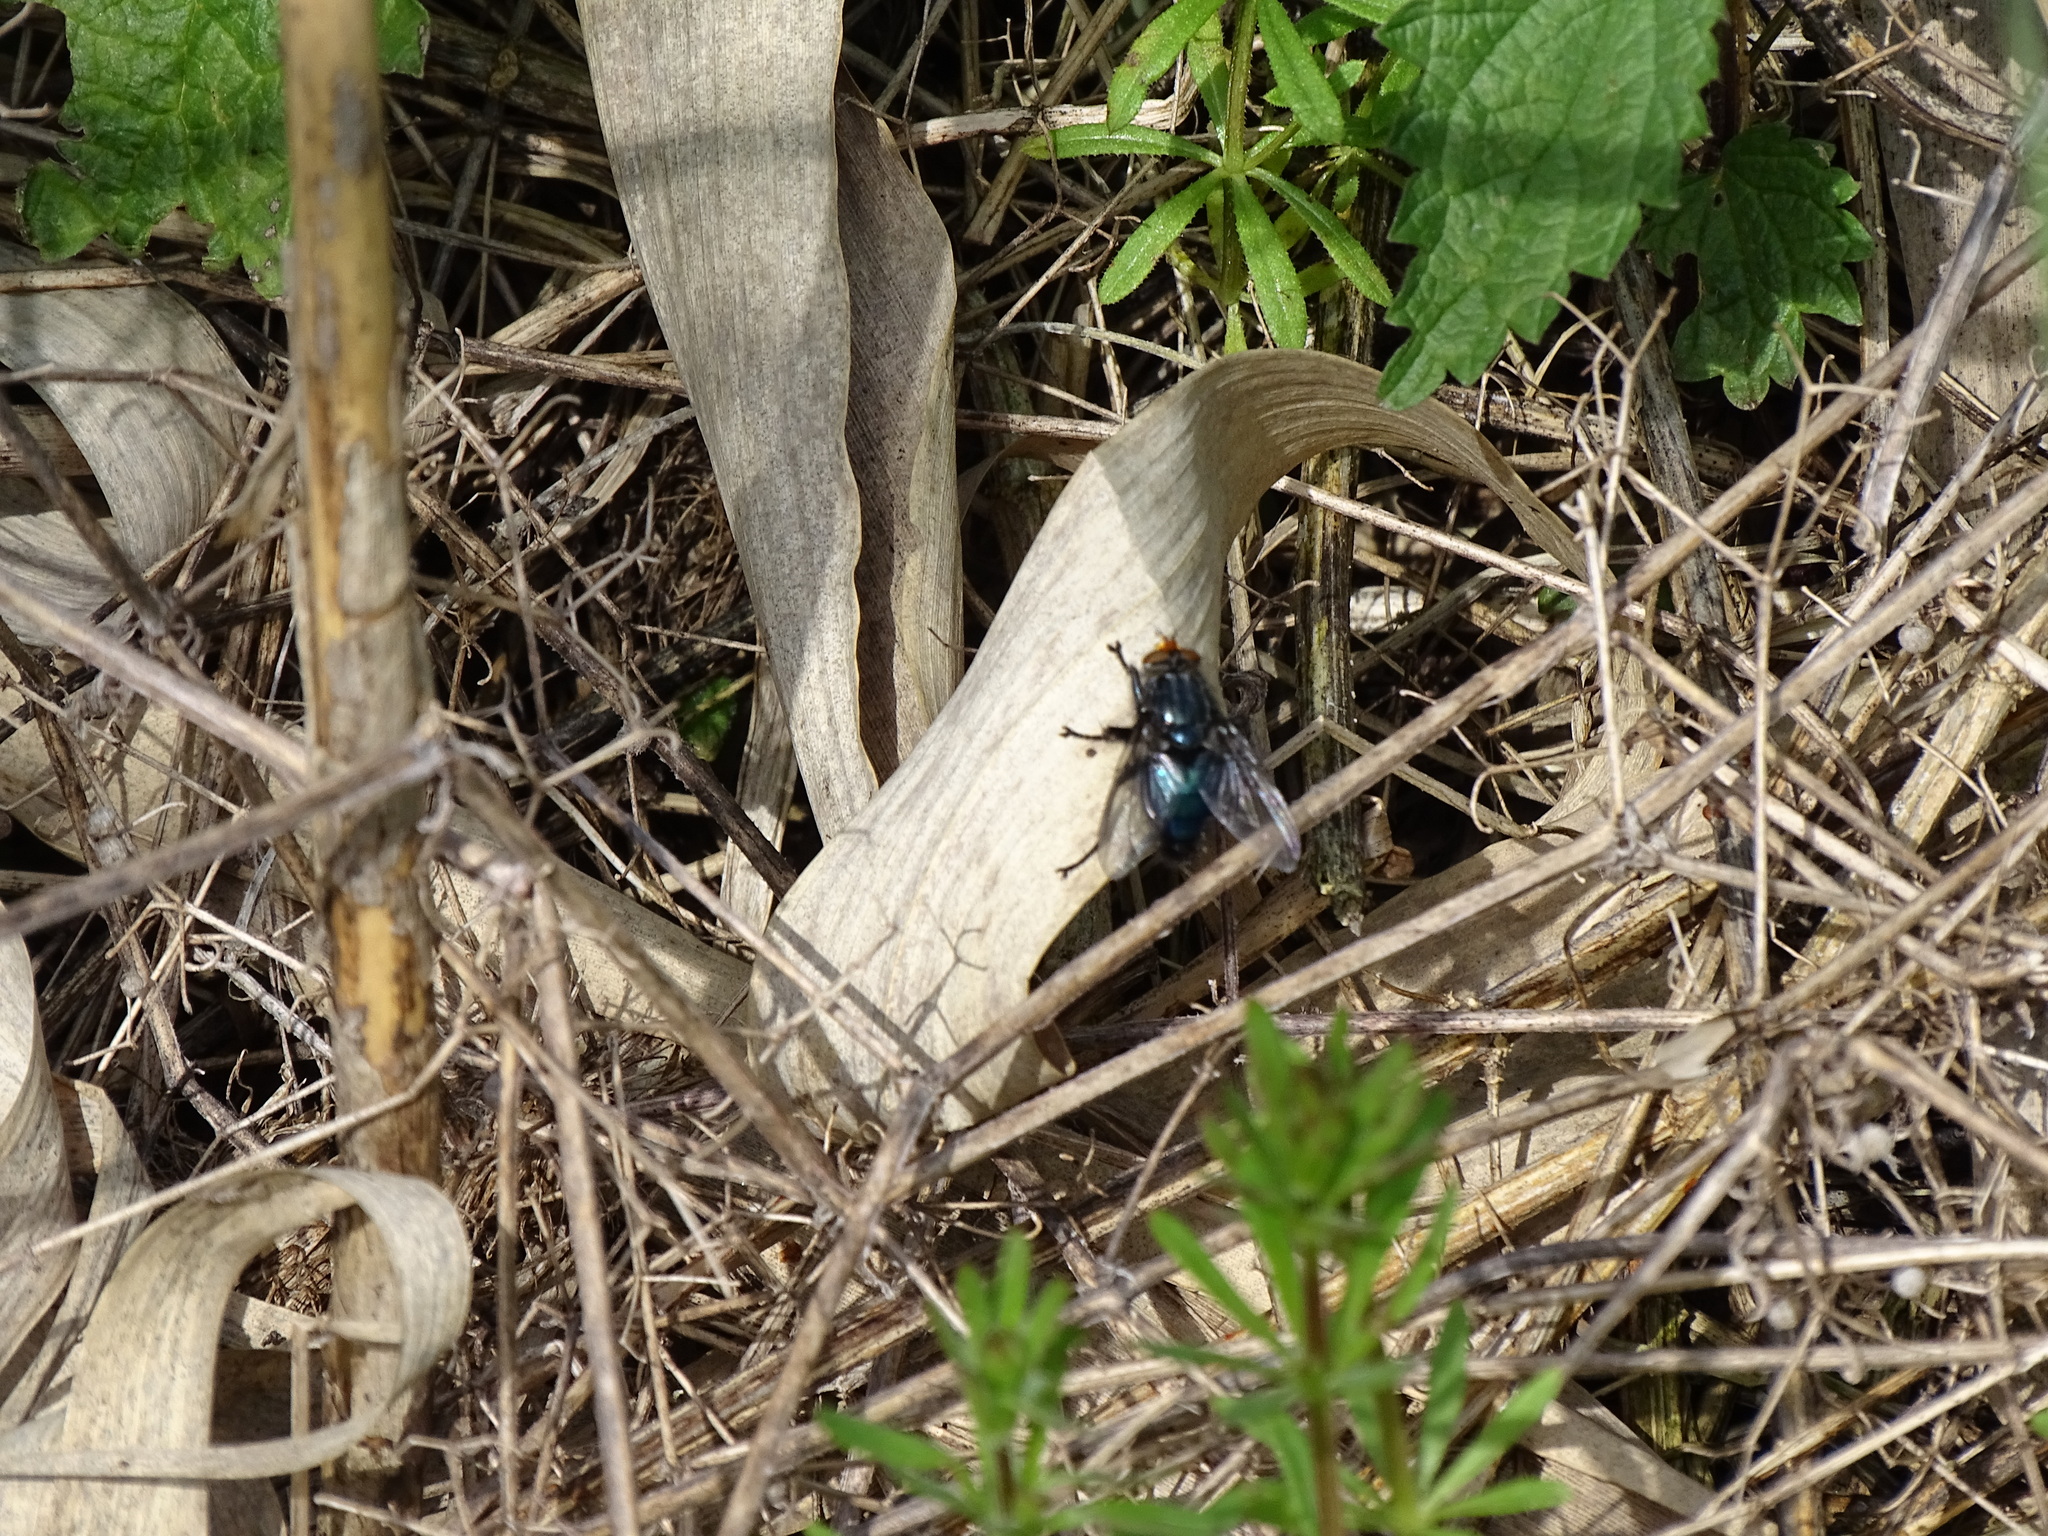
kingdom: Animalia
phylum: Arthropoda
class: Insecta
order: Diptera
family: Calliphoridae
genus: Cynomya
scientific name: Cynomya mortuorum
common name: Bluebottle blow fly
